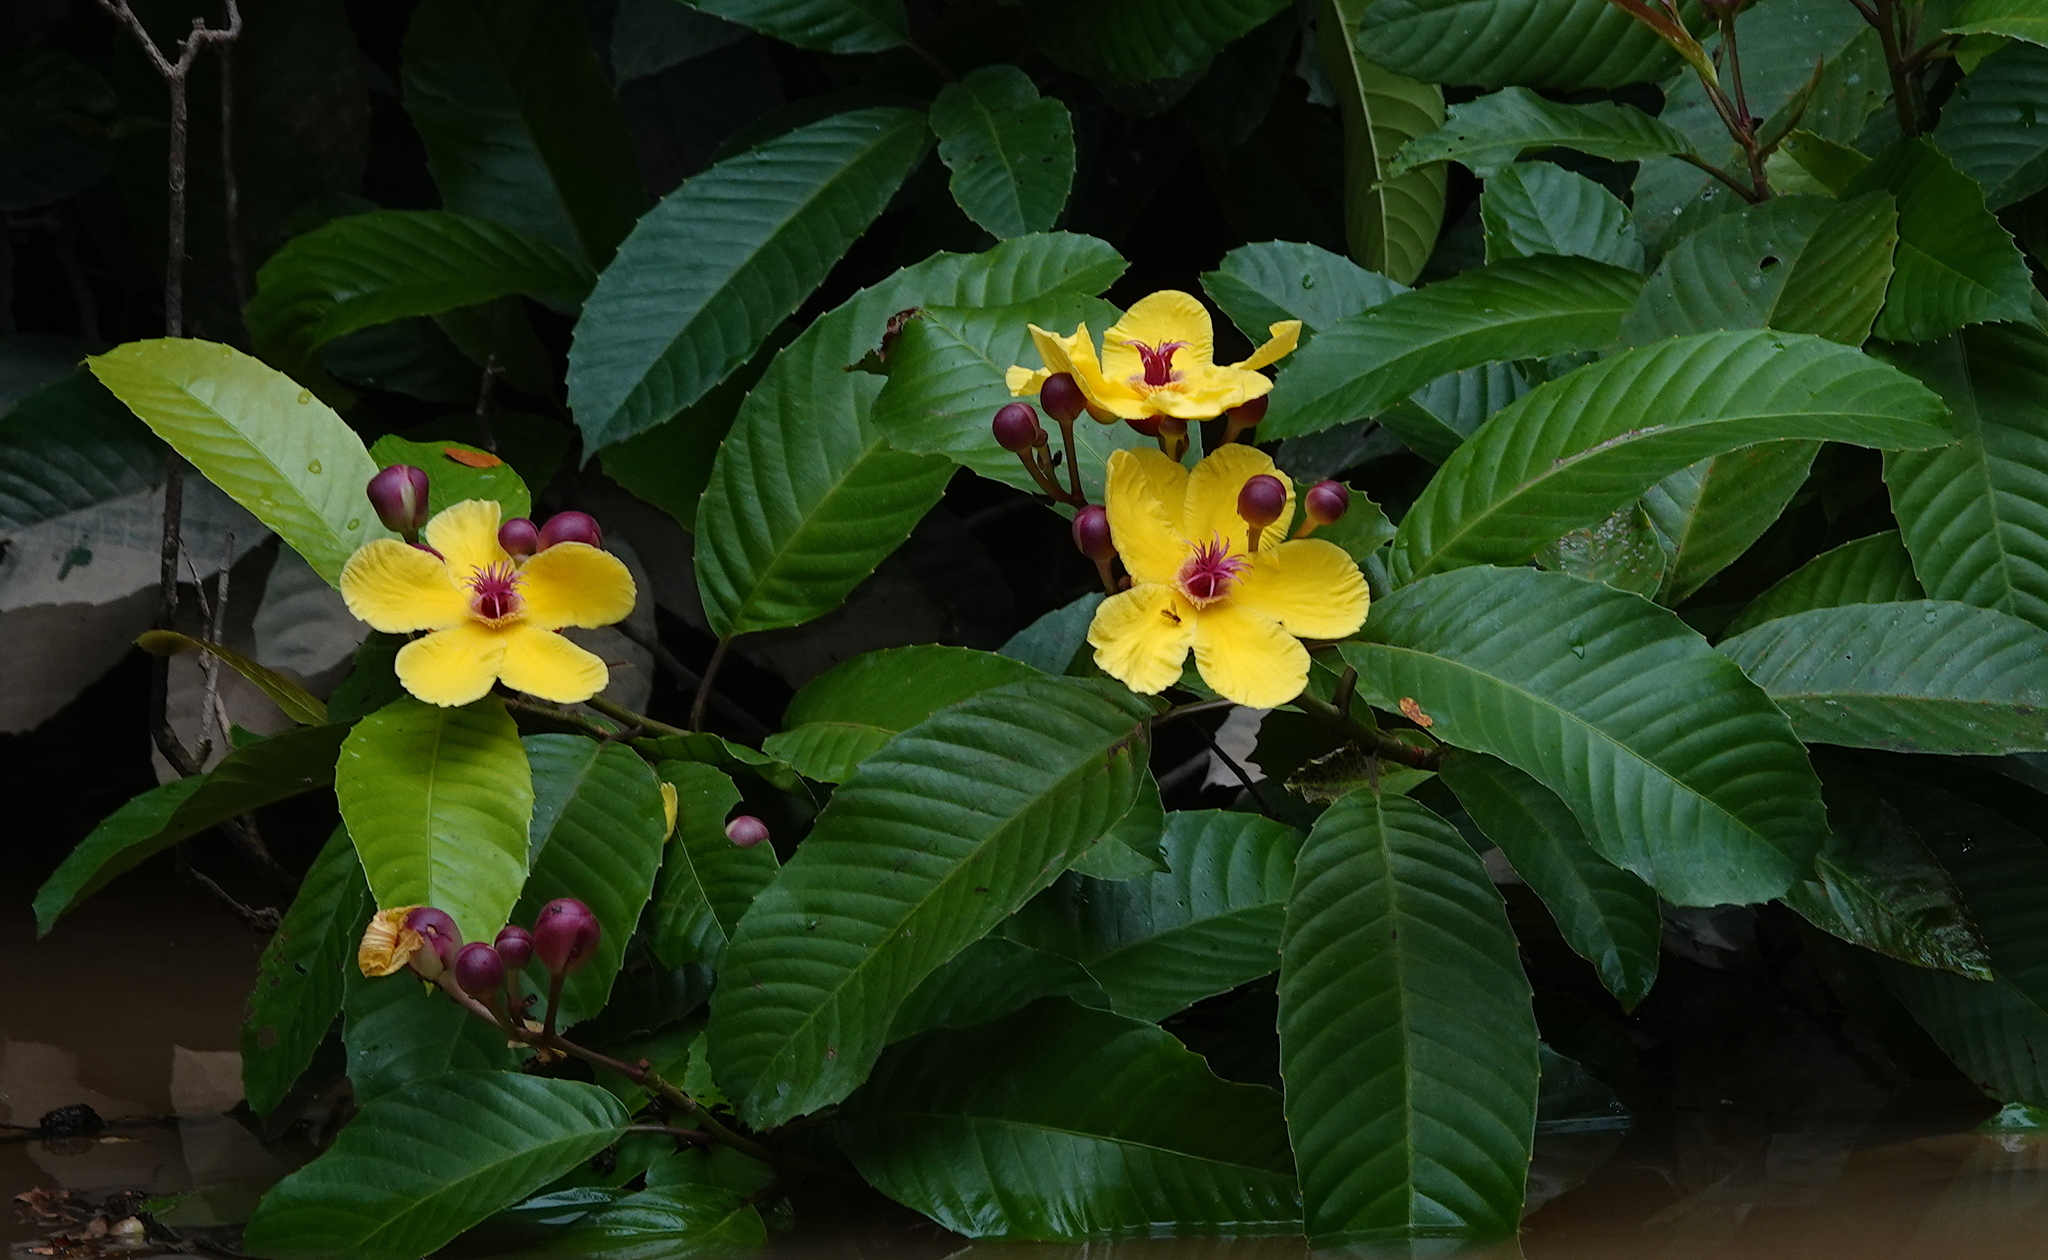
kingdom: Plantae
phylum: Tracheophyta
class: Magnoliopsida
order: Dilleniales
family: Dilleniaceae
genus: Dillenia
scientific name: Dillenia excelsa
